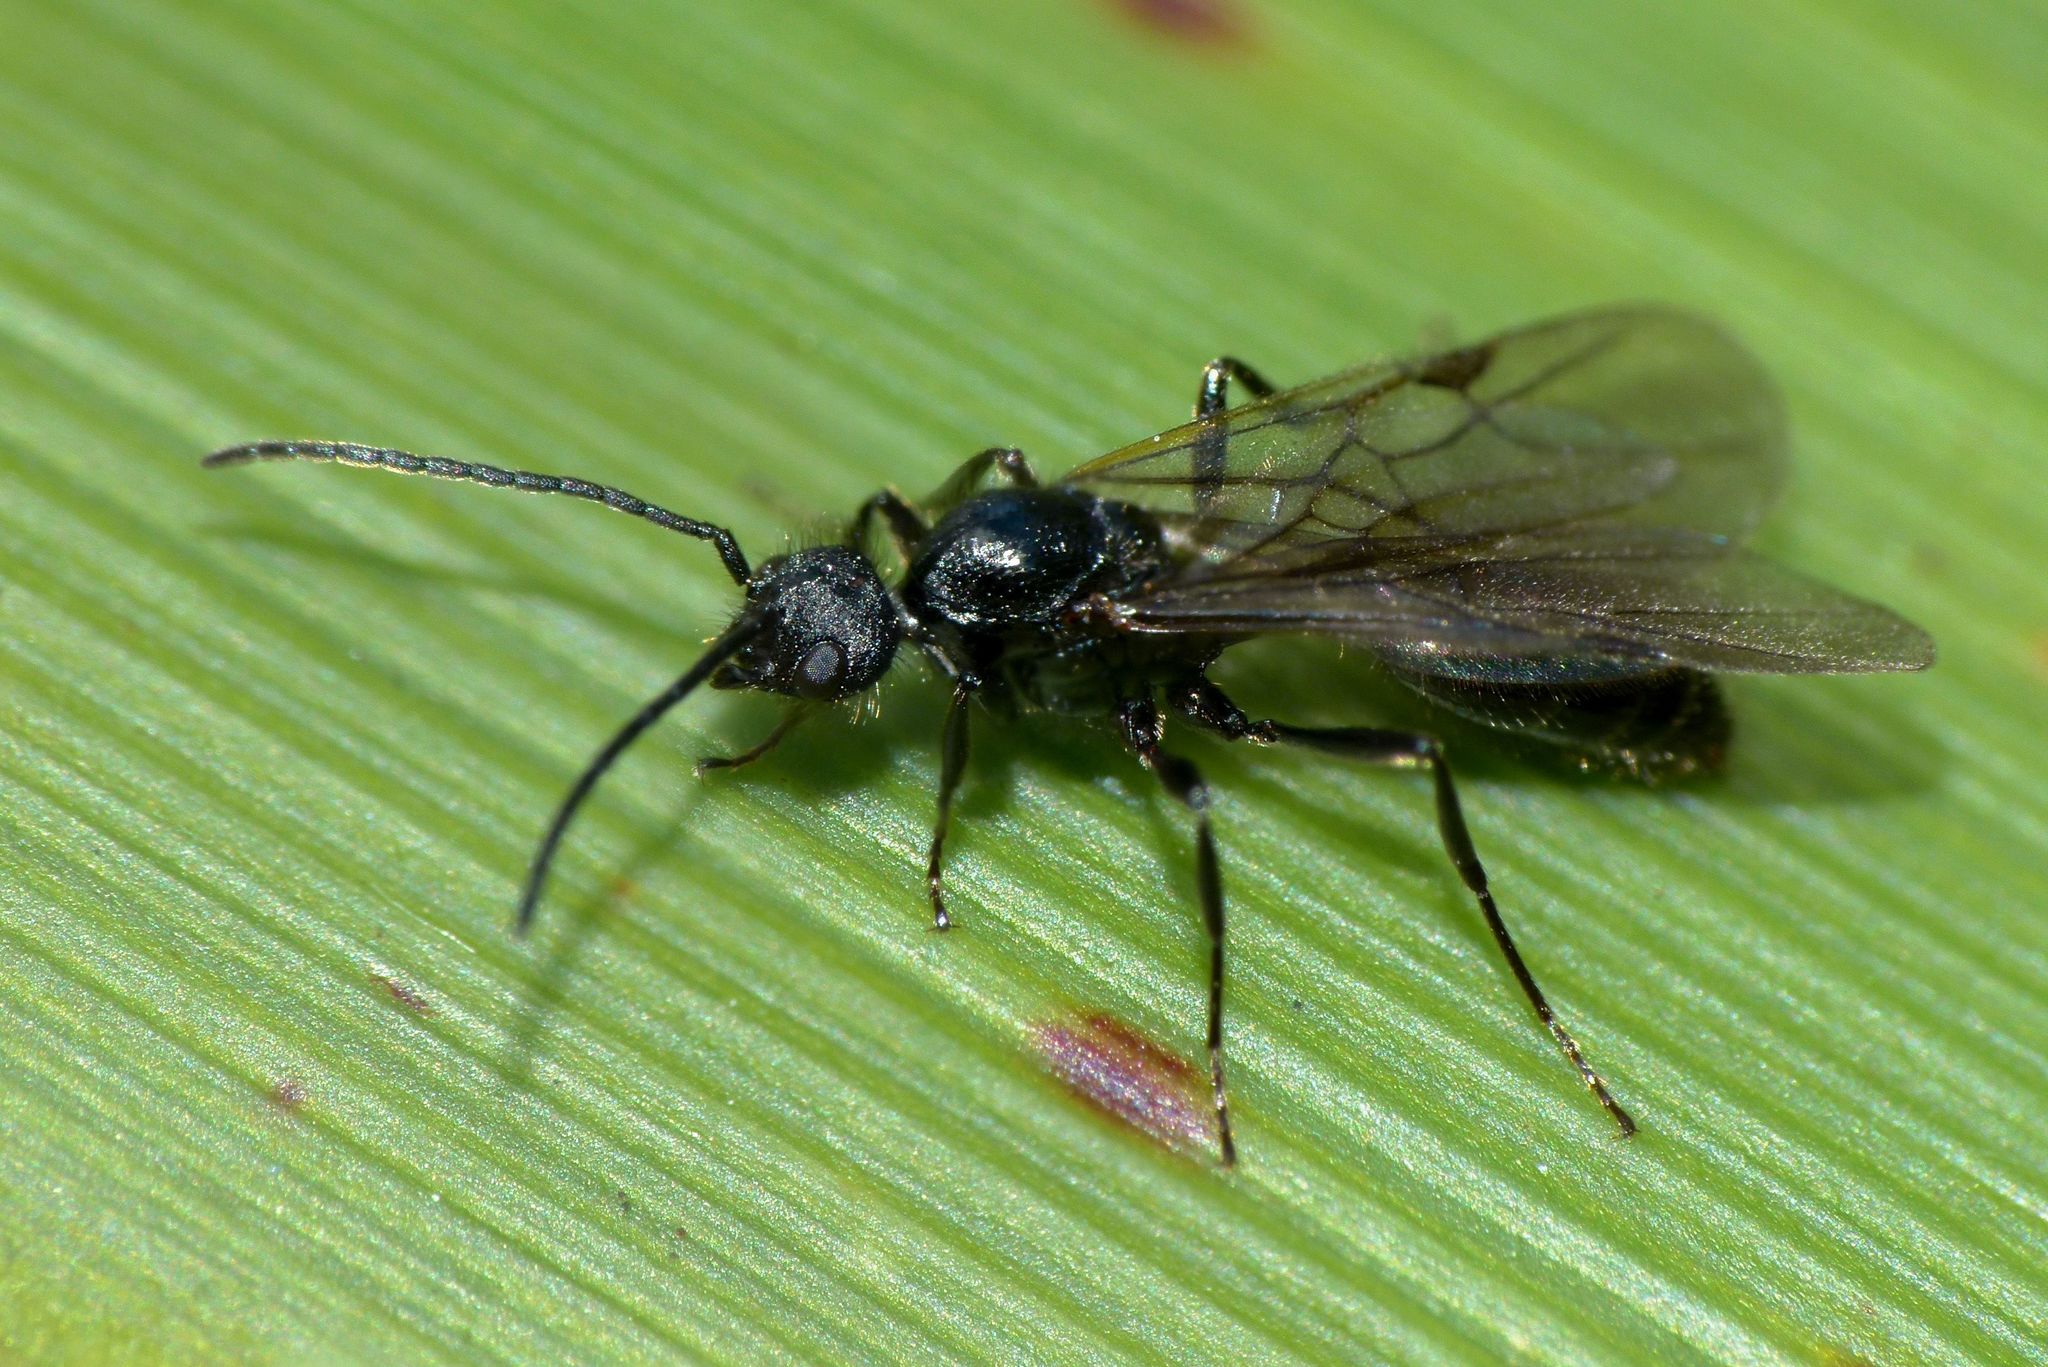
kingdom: Animalia
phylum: Arthropoda
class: Insecta
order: Hymenoptera
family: Formicidae
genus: Huberia
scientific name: Huberia striata
